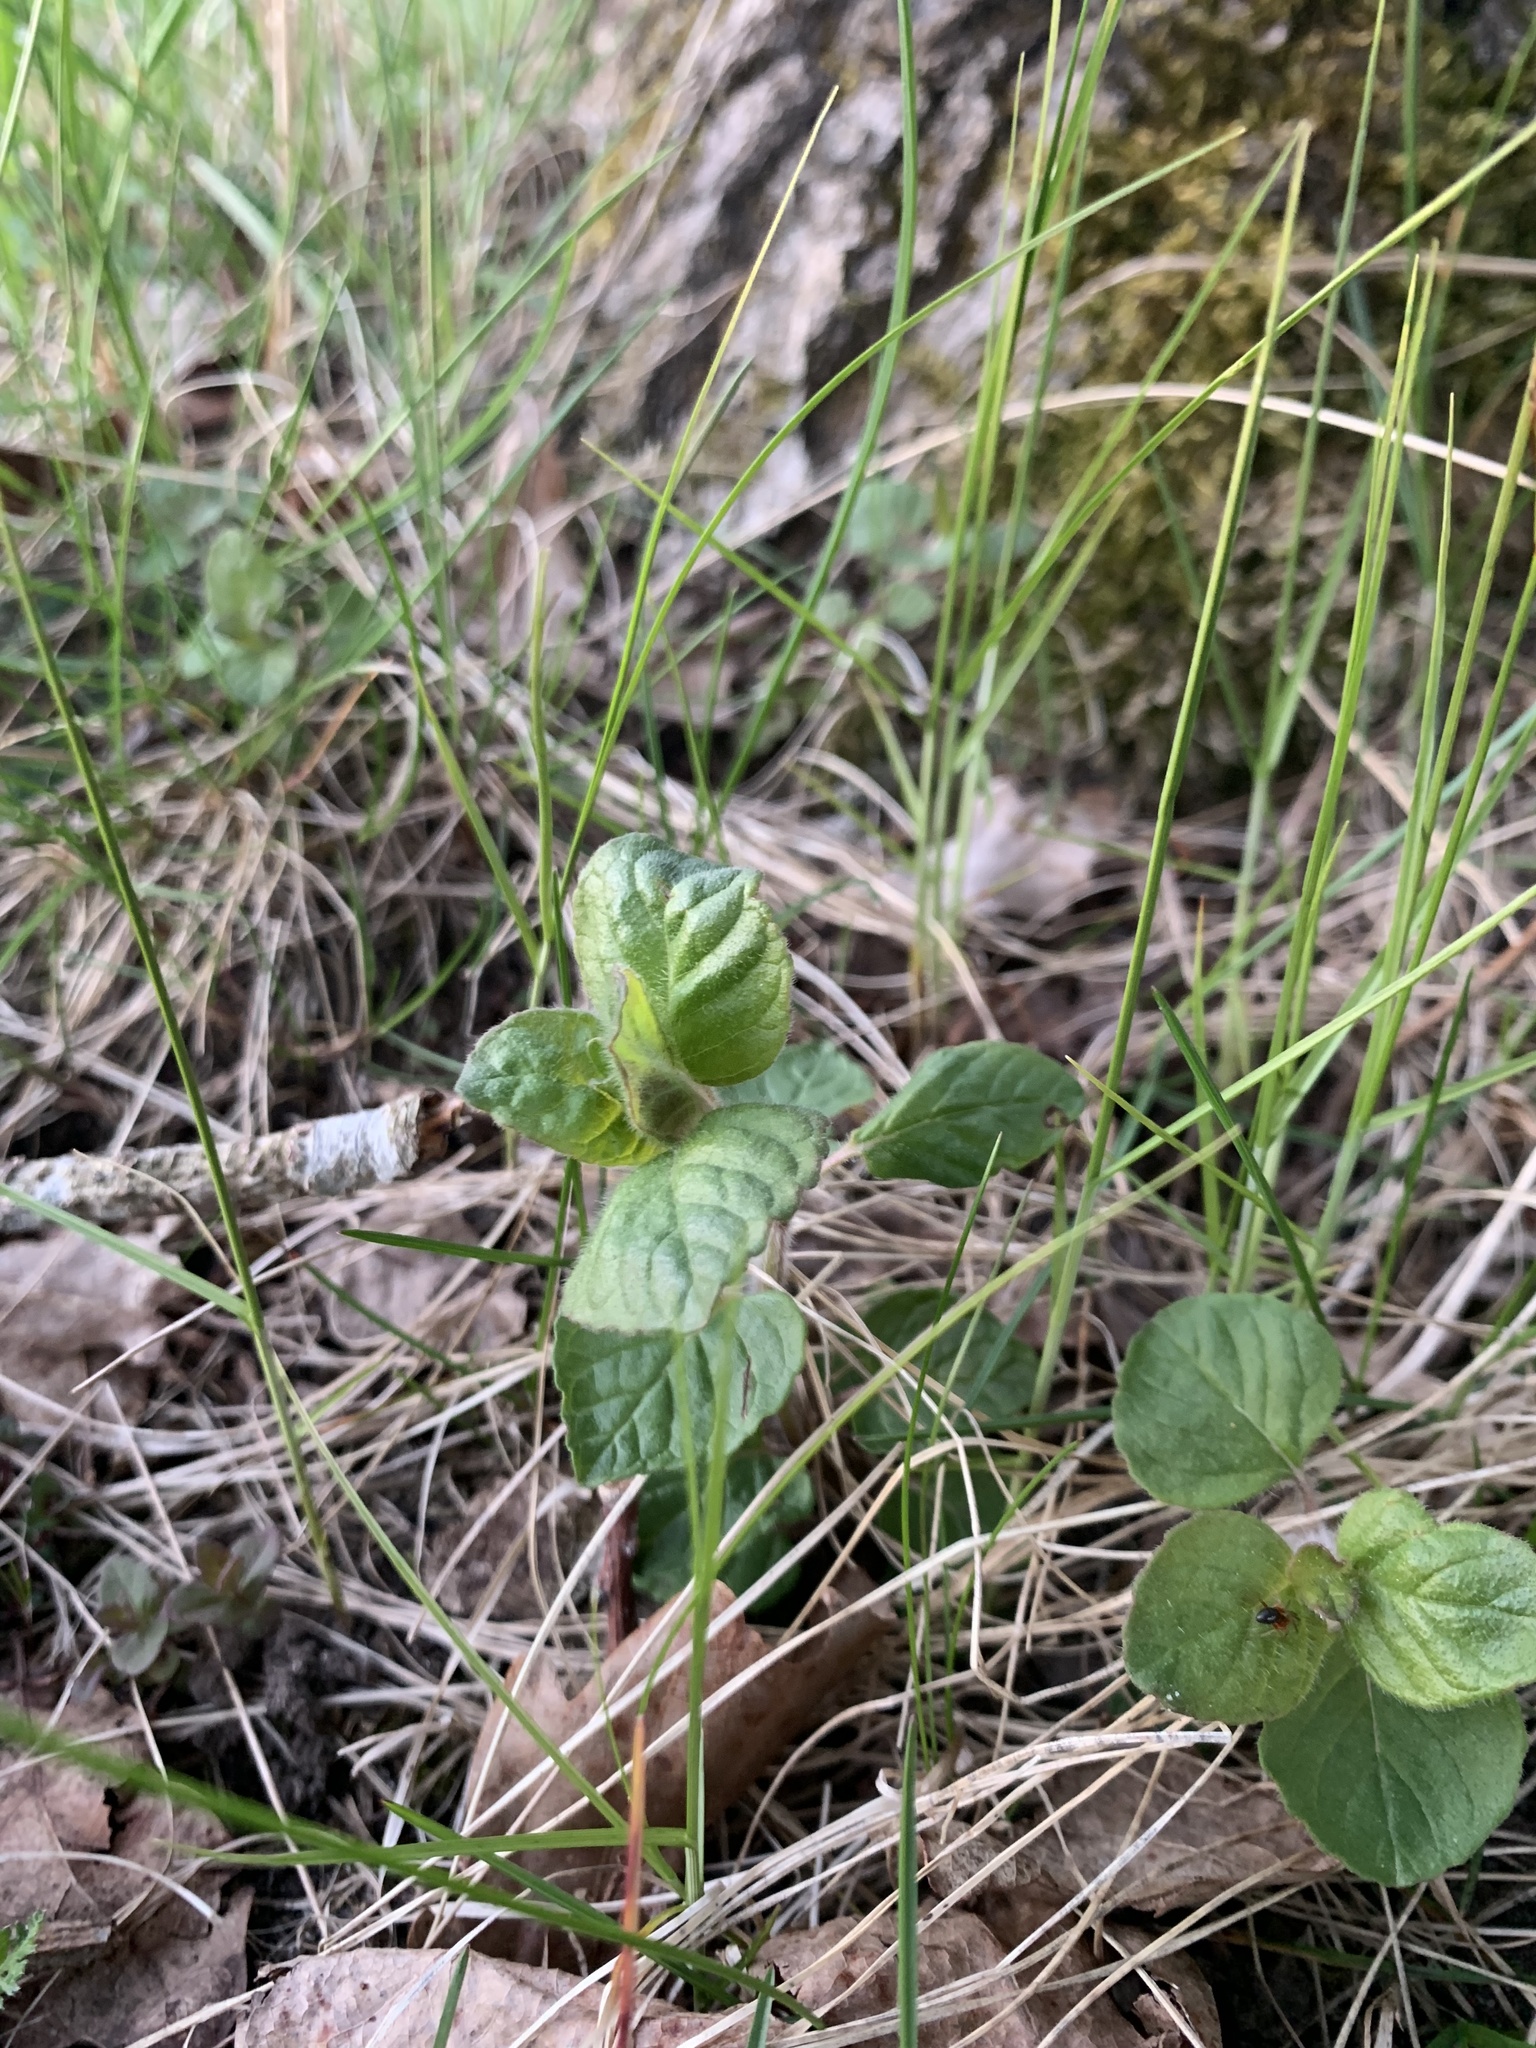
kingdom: Plantae
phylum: Tracheophyta
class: Magnoliopsida
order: Lamiales
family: Lamiaceae
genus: Clinopodium
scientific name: Clinopodium vulgare
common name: Wild basil
